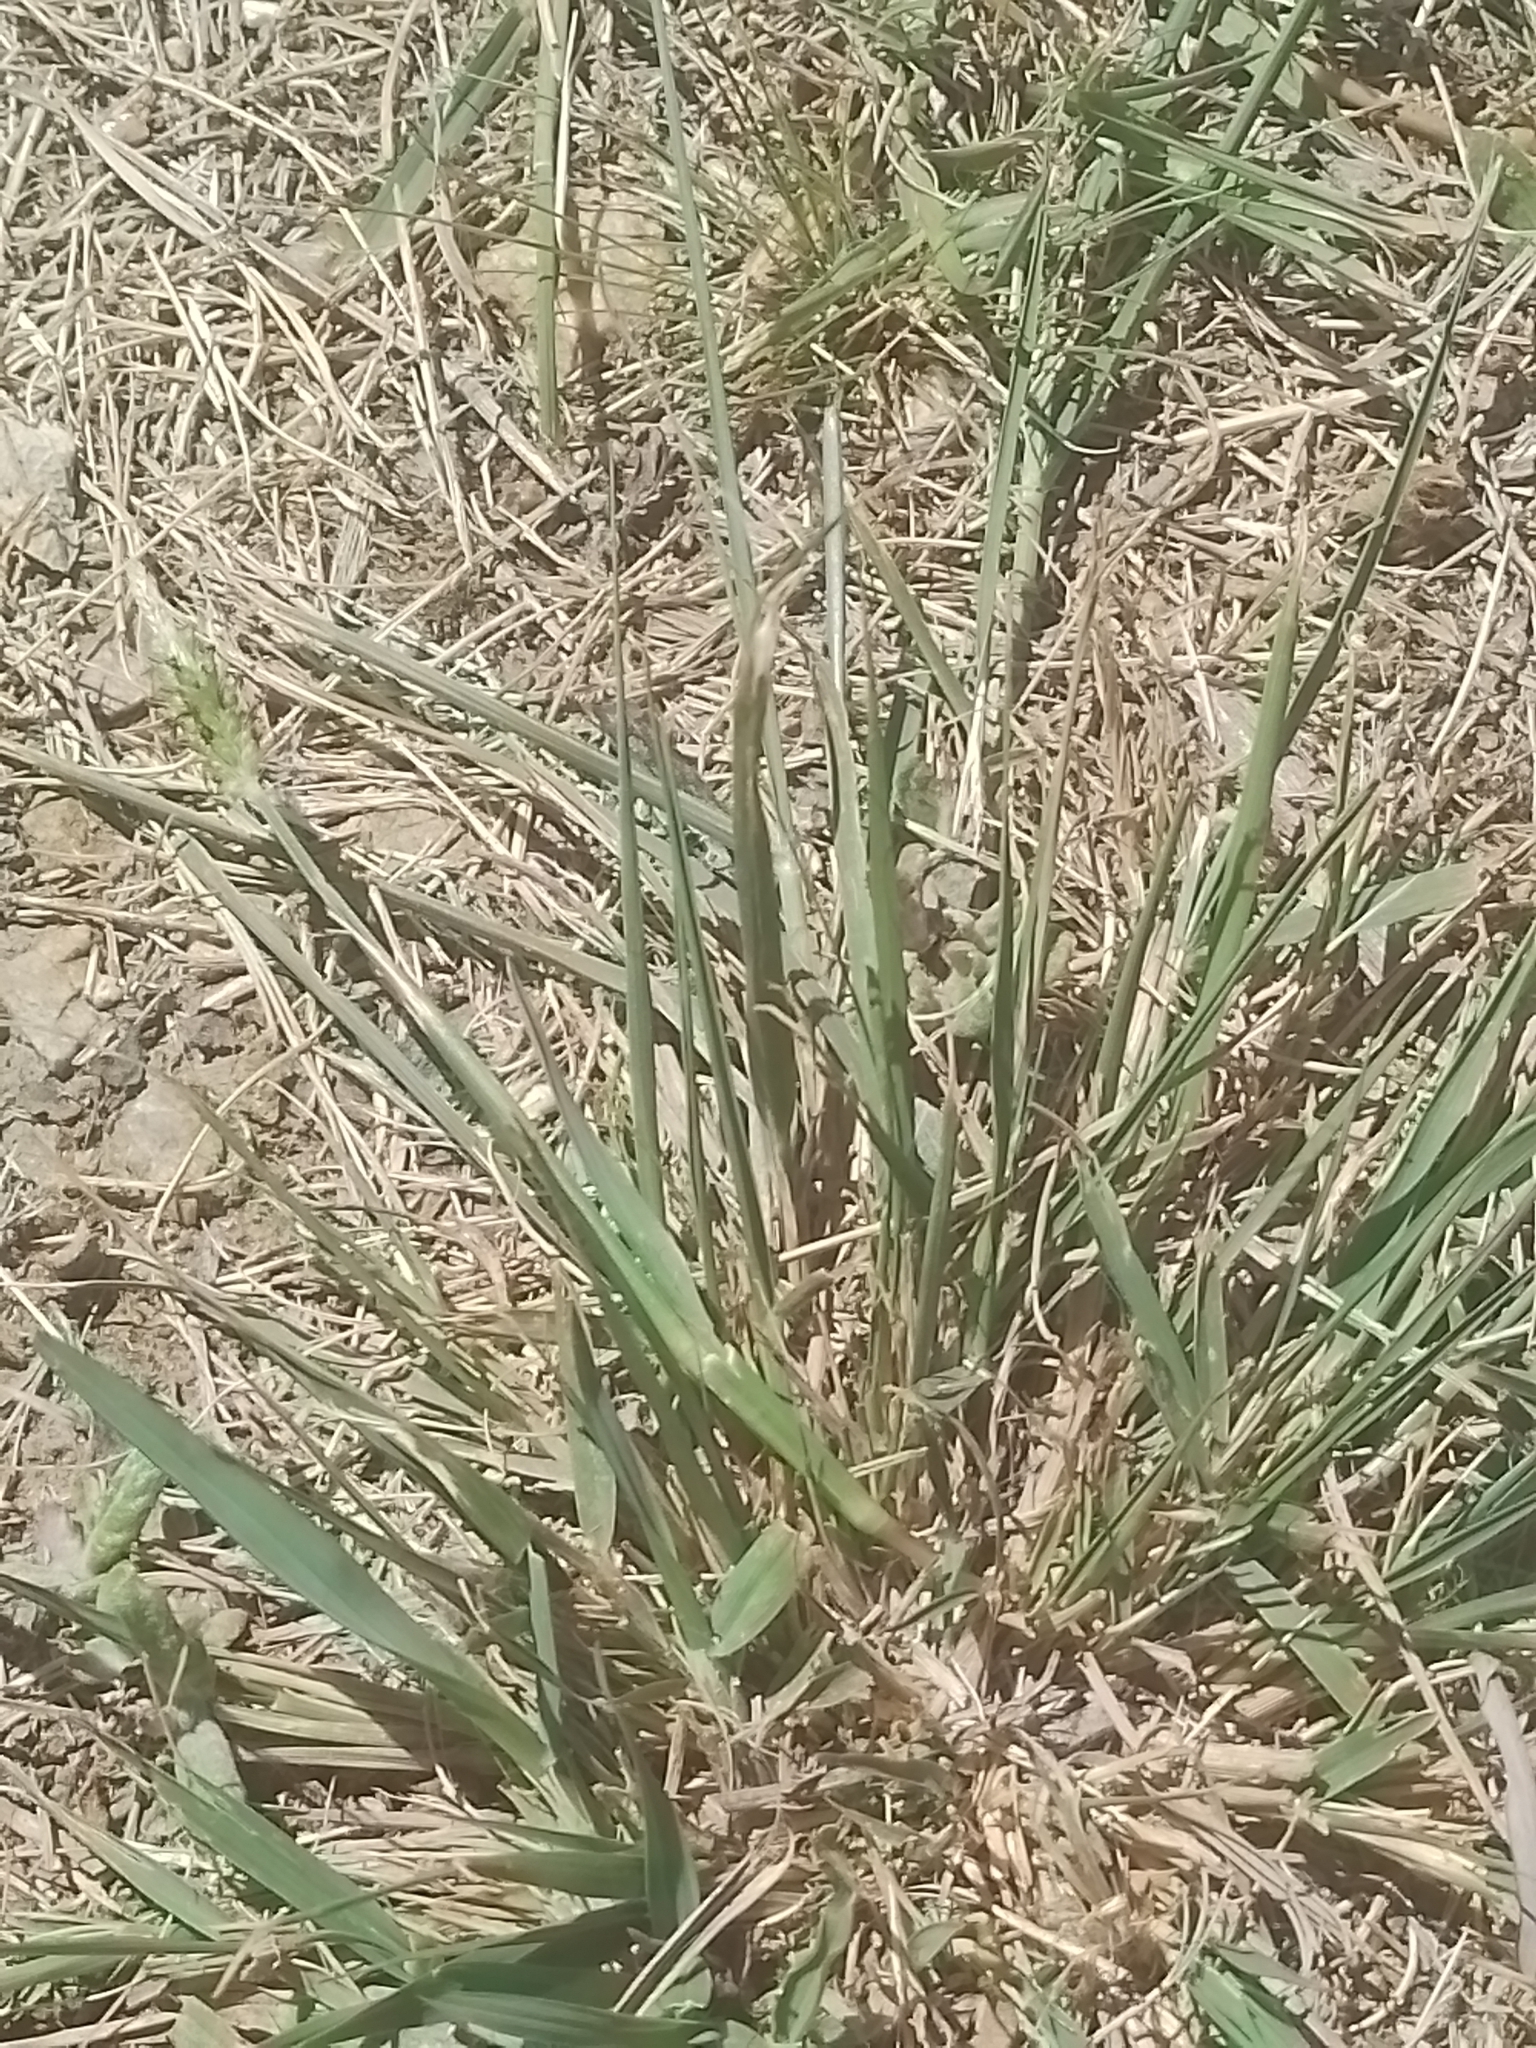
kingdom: Plantae
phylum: Tracheophyta
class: Liliopsida
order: Poales
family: Poaceae
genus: Setaria
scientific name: Setaria parviflora
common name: Knotroot bristle-grass
